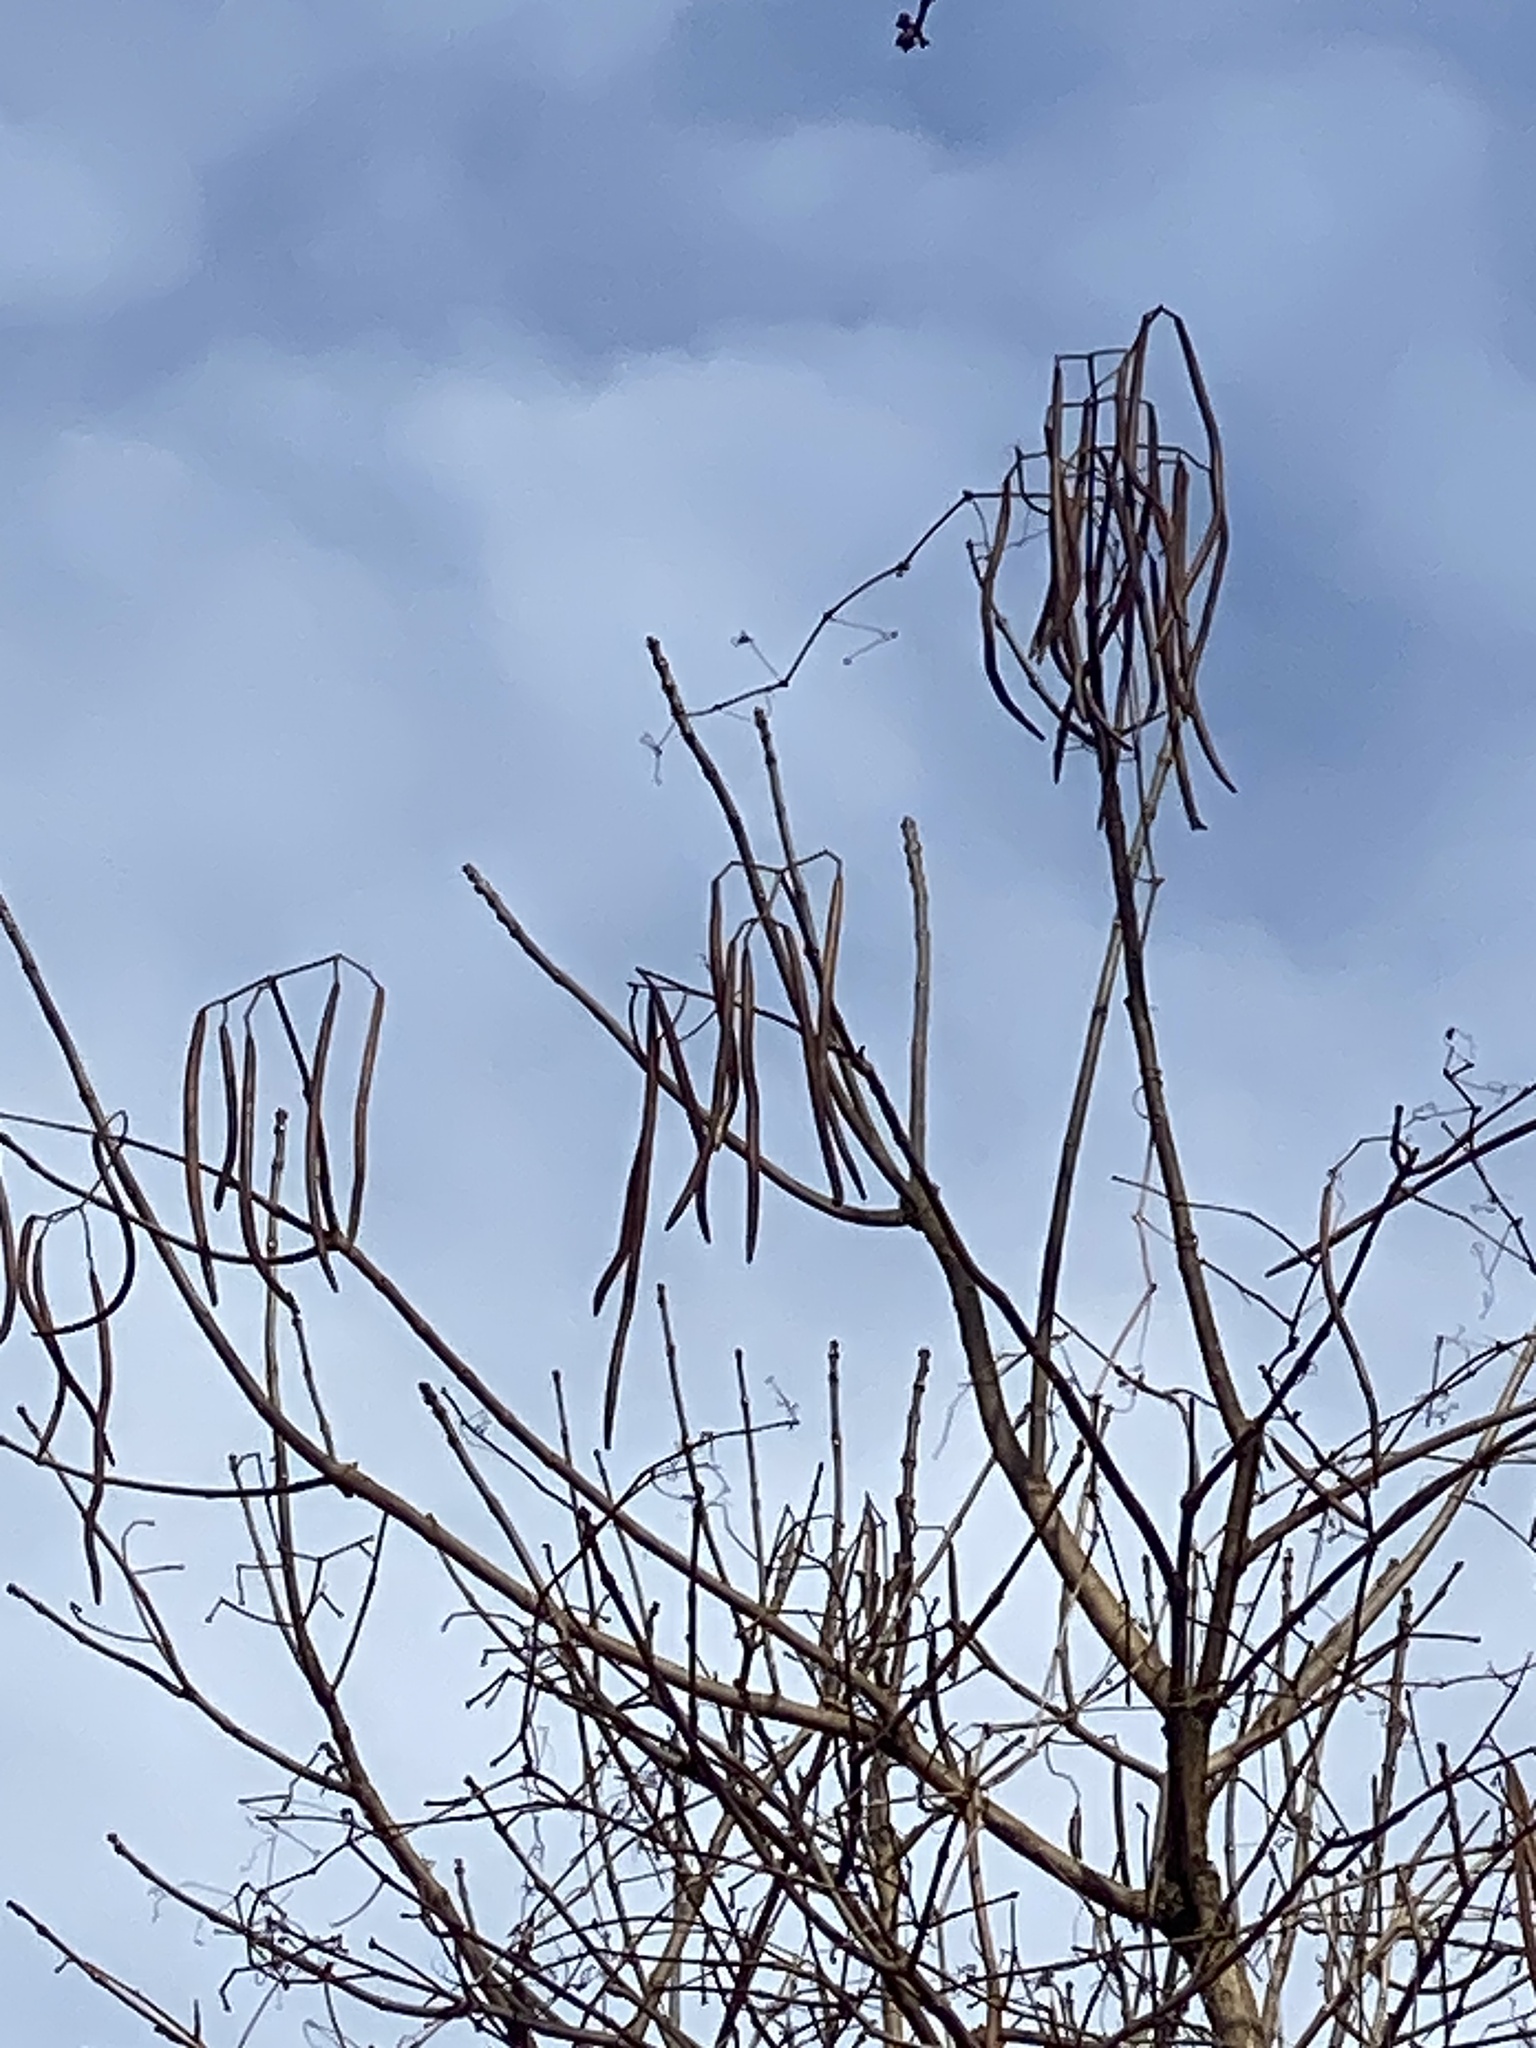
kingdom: Plantae
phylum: Tracheophyta
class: Magnoliopsida
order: Lamiales
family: Bignoniaceae
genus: Catalpa
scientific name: Catalpa
